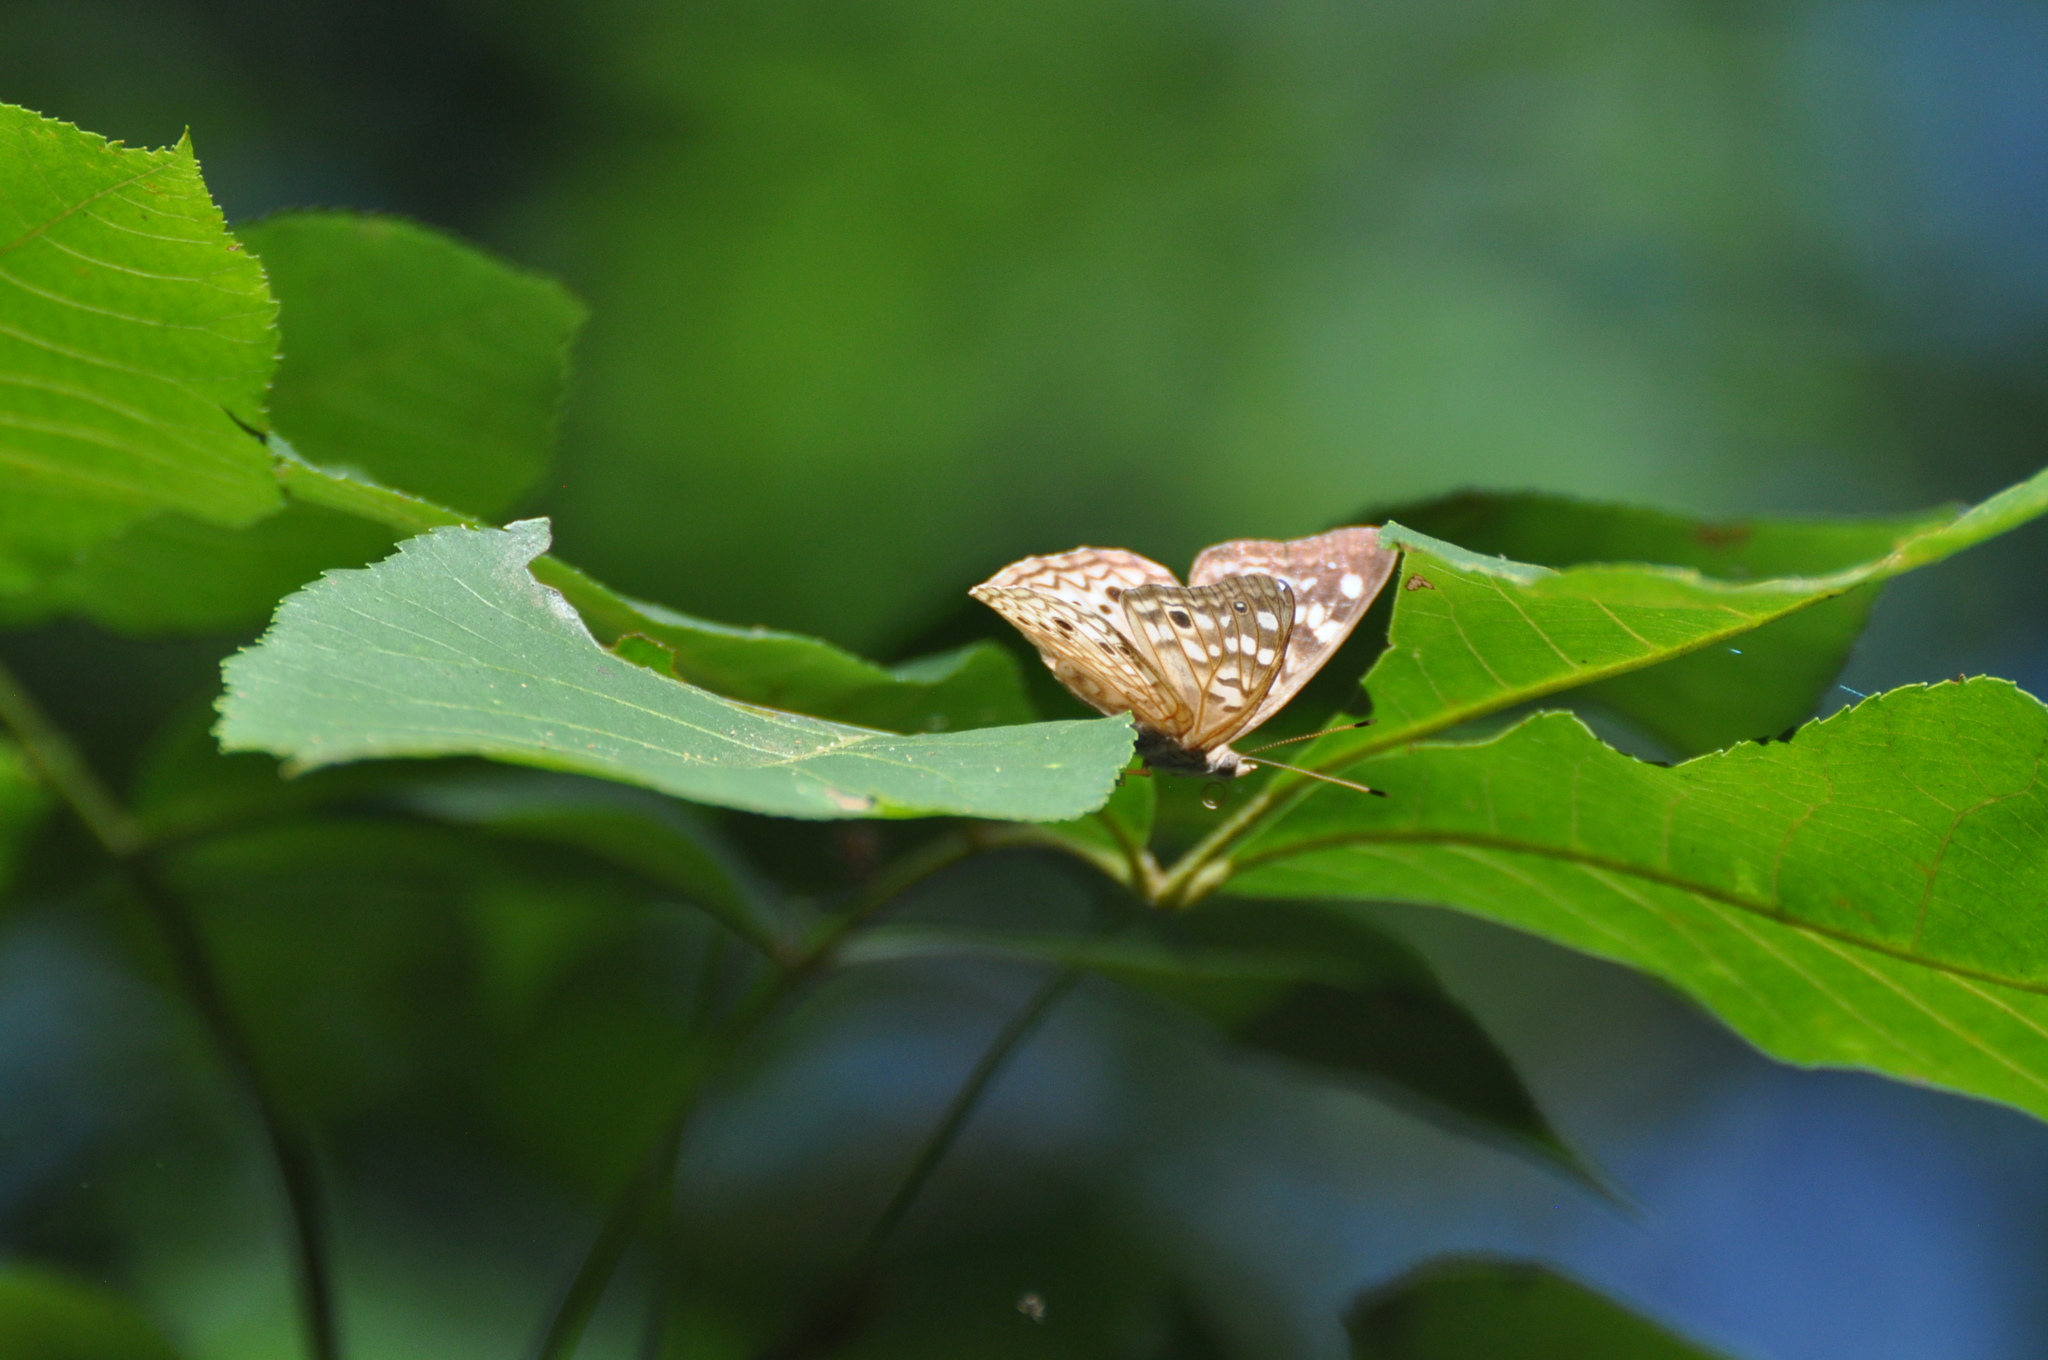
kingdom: Animalia
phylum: Arthropoda
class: Insecta
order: Lepidoptera
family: Nymphalidae
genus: Asterocampa
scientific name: Asterocampa celtis
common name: Hackberry emperor
